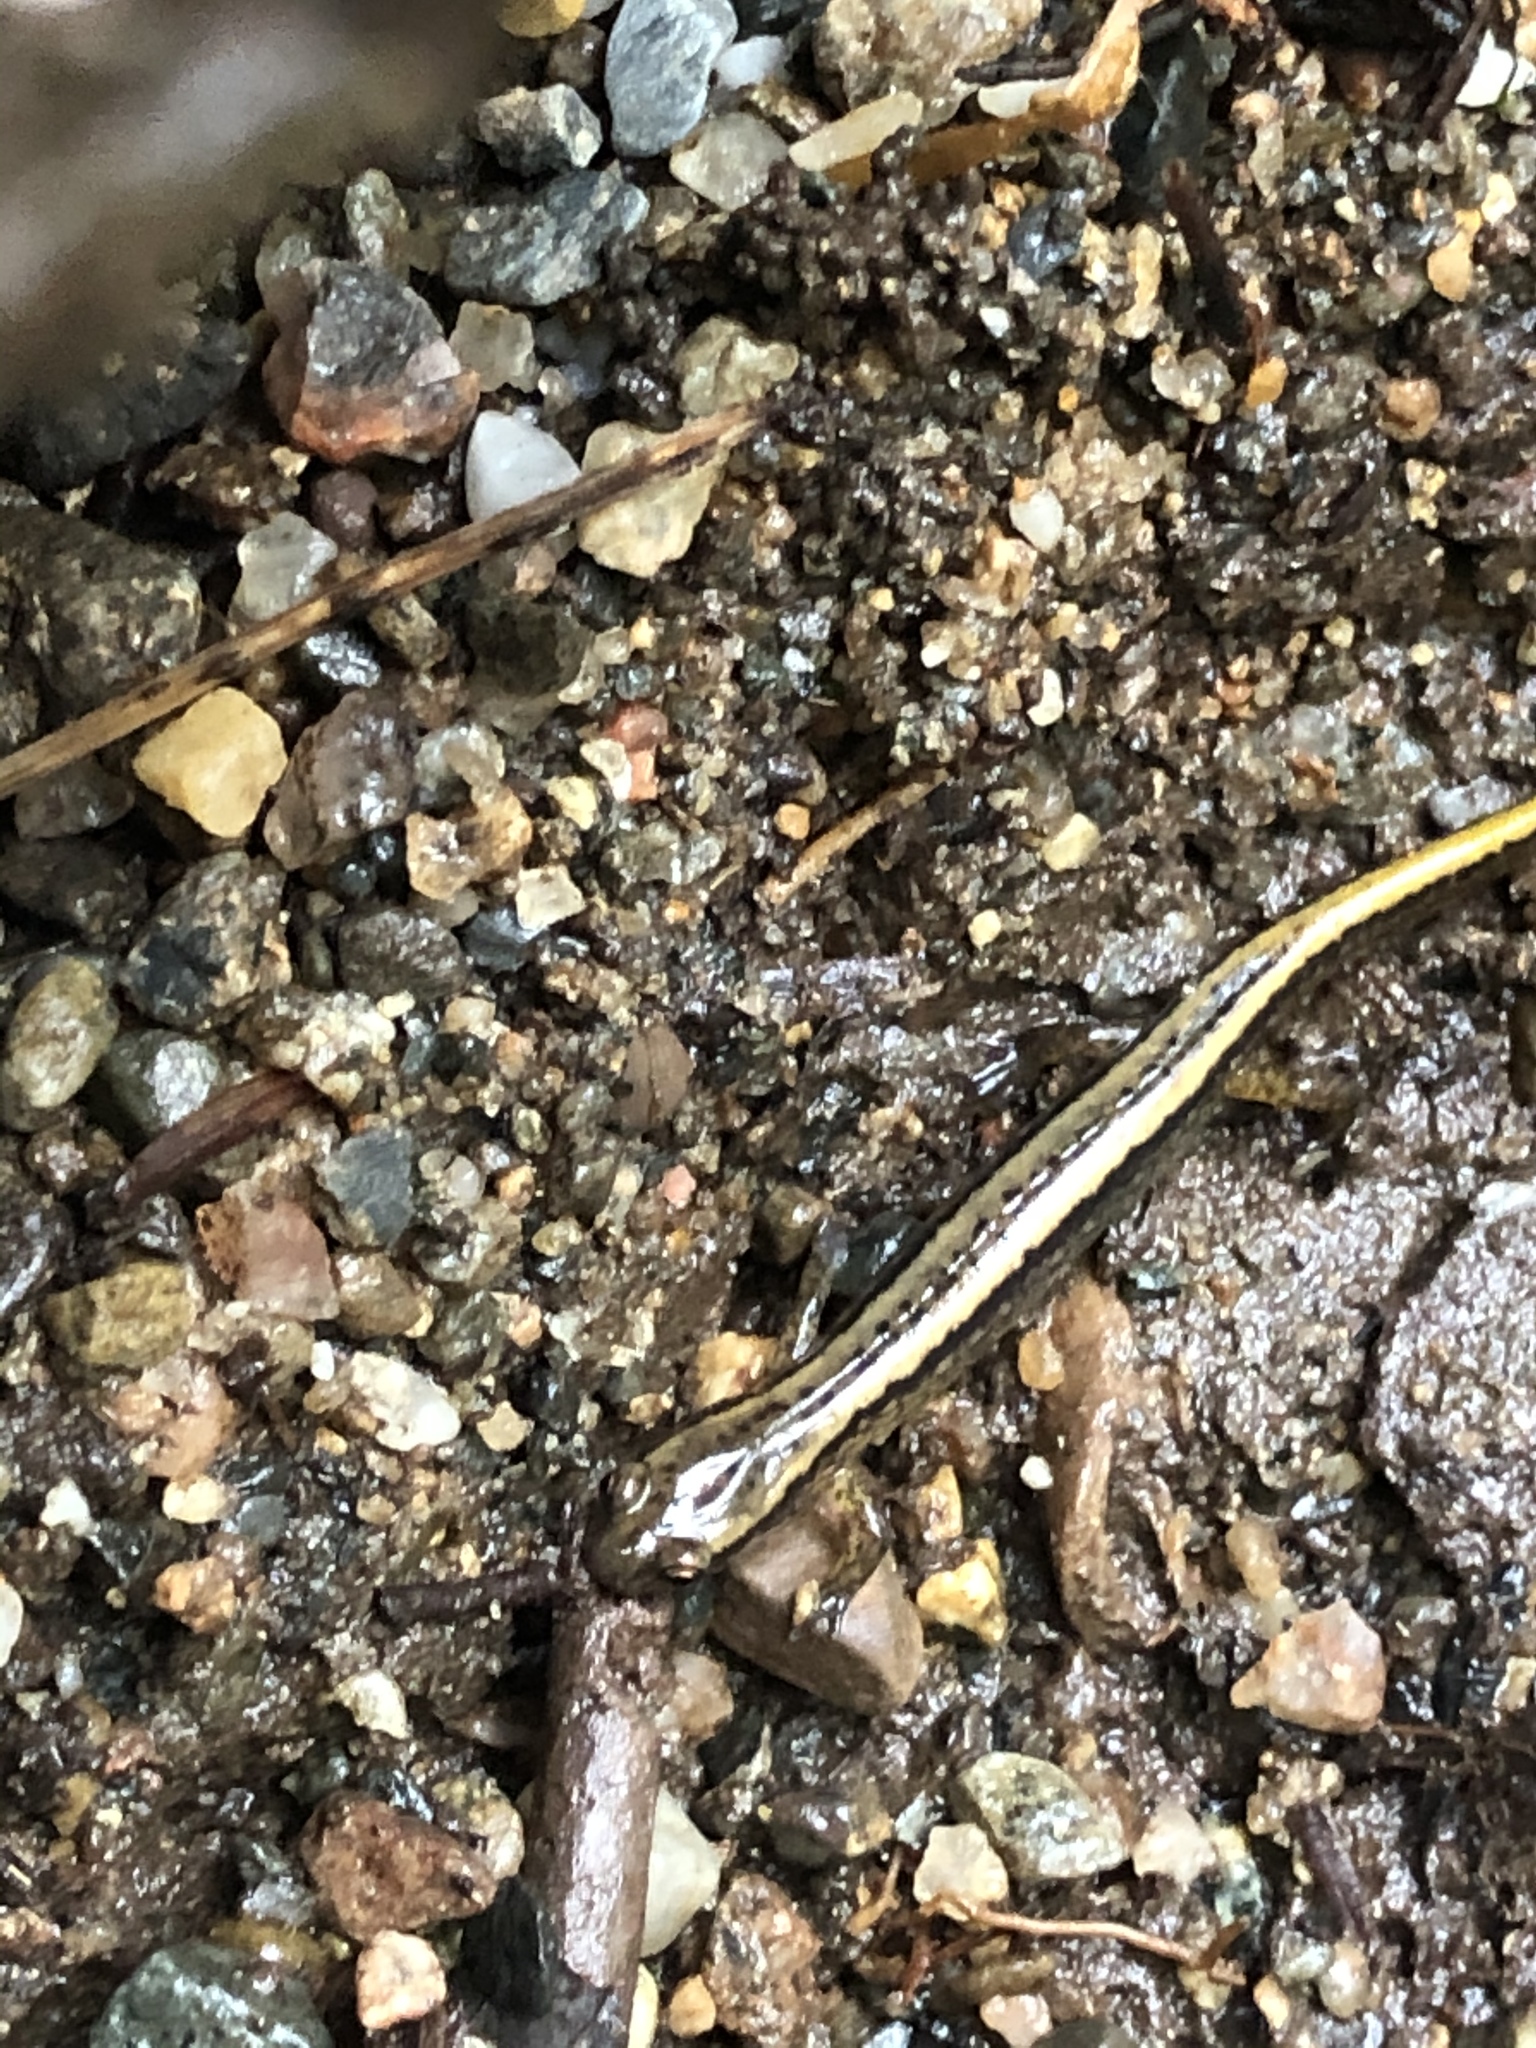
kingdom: Animalia
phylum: Chordata
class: Amphibia
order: Caudata
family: Plethodontidae
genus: Eurycea
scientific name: Eurycea bislineata
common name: Northern two-lined salamander
